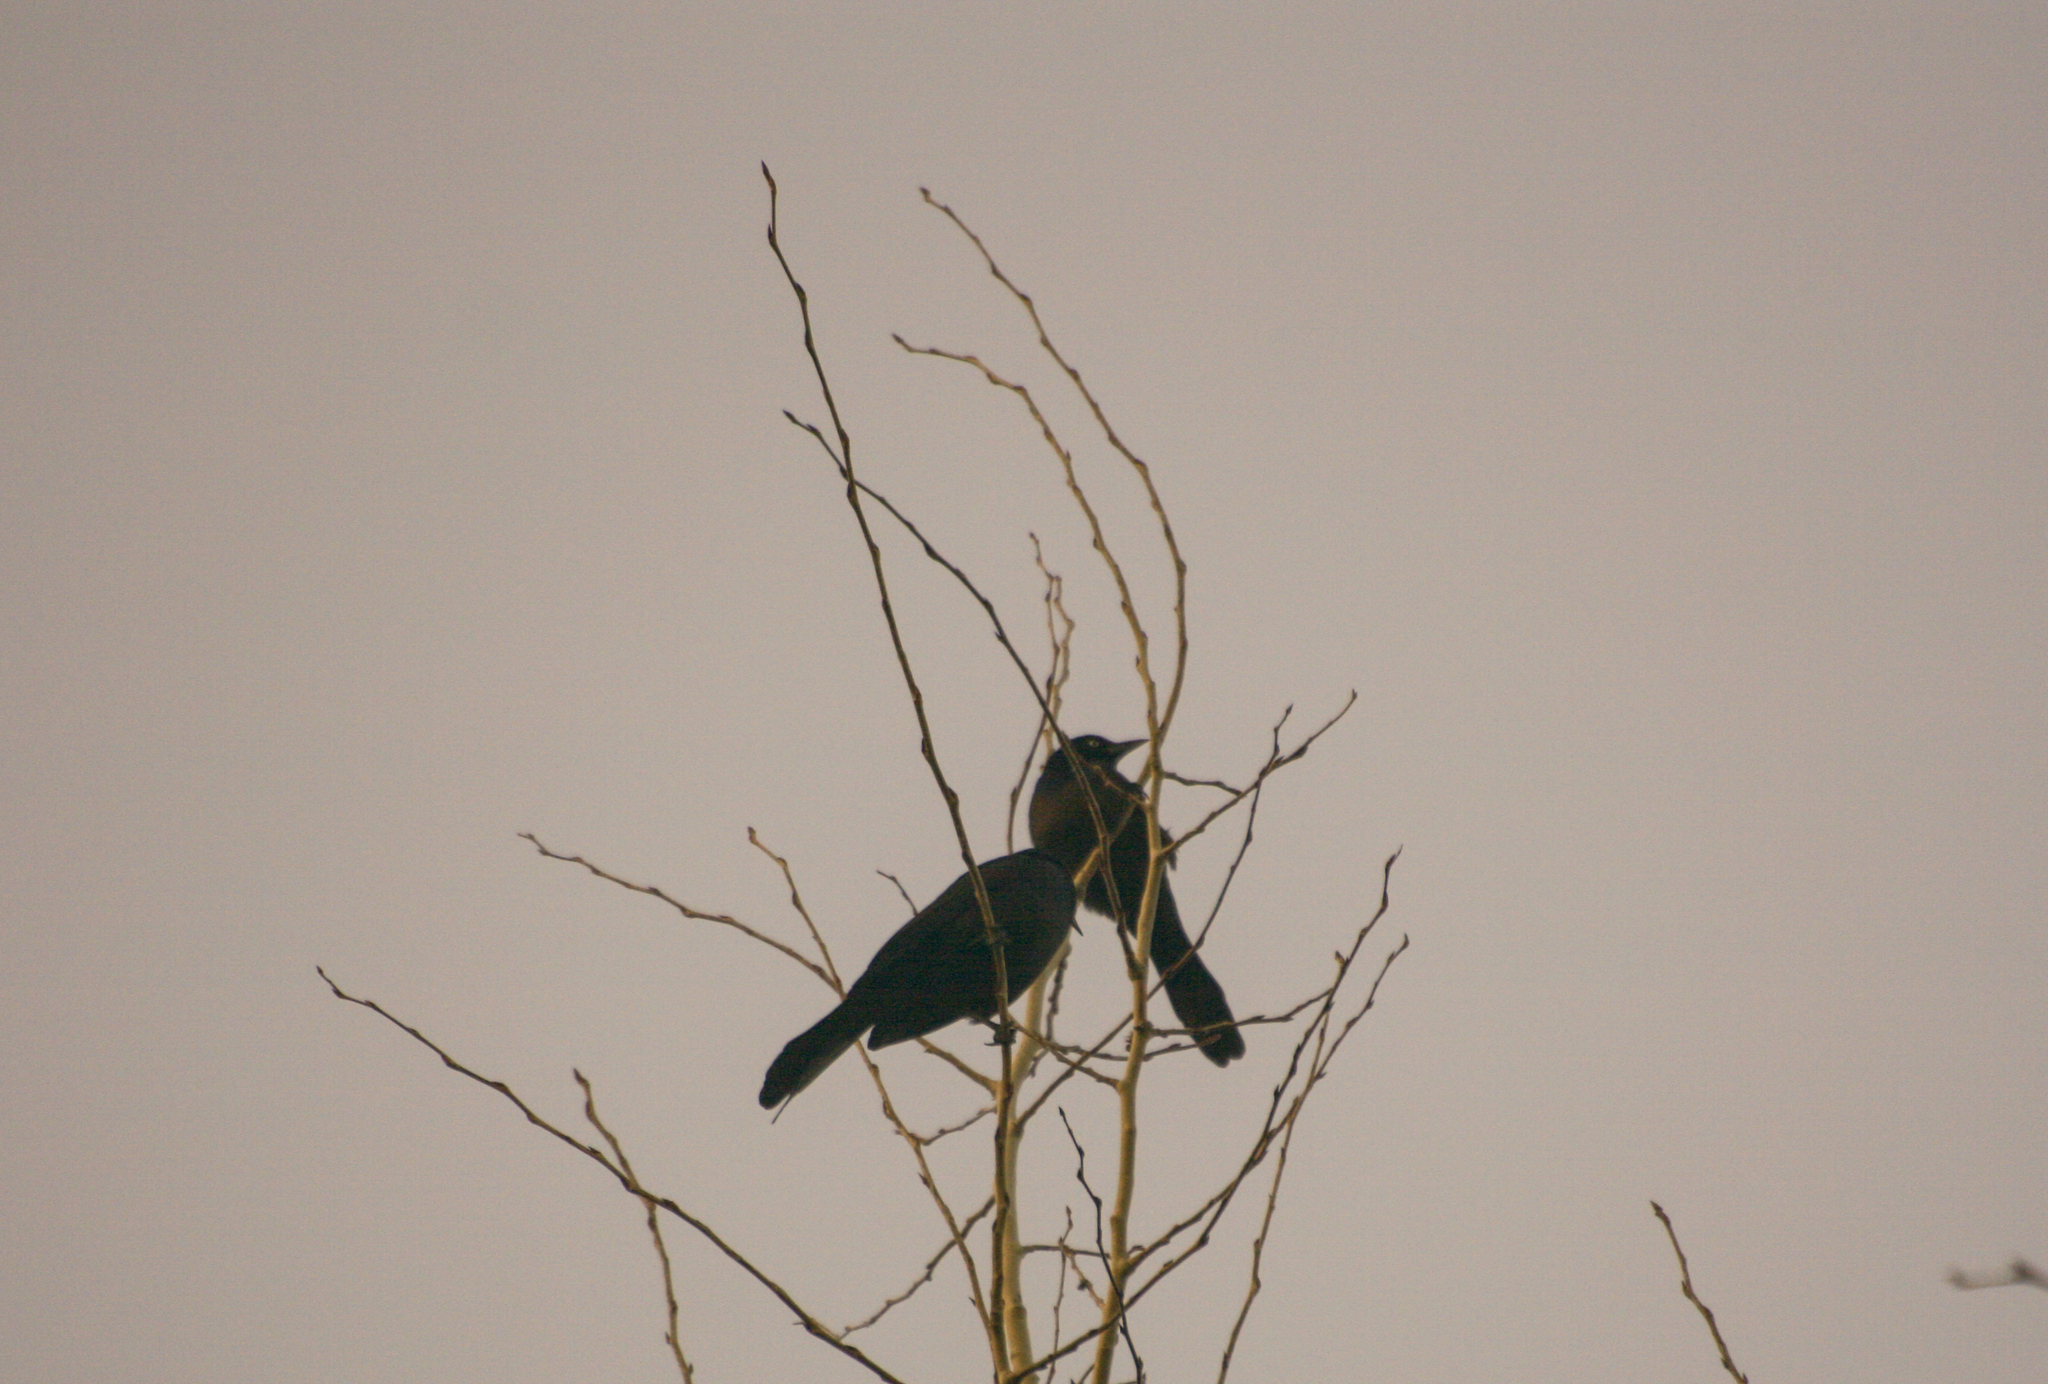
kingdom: Animalia
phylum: Chordata
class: Aves
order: Passeriformes
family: Icteridae
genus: Quiscalus
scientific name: Quiscalus quiscula
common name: Common grackle
